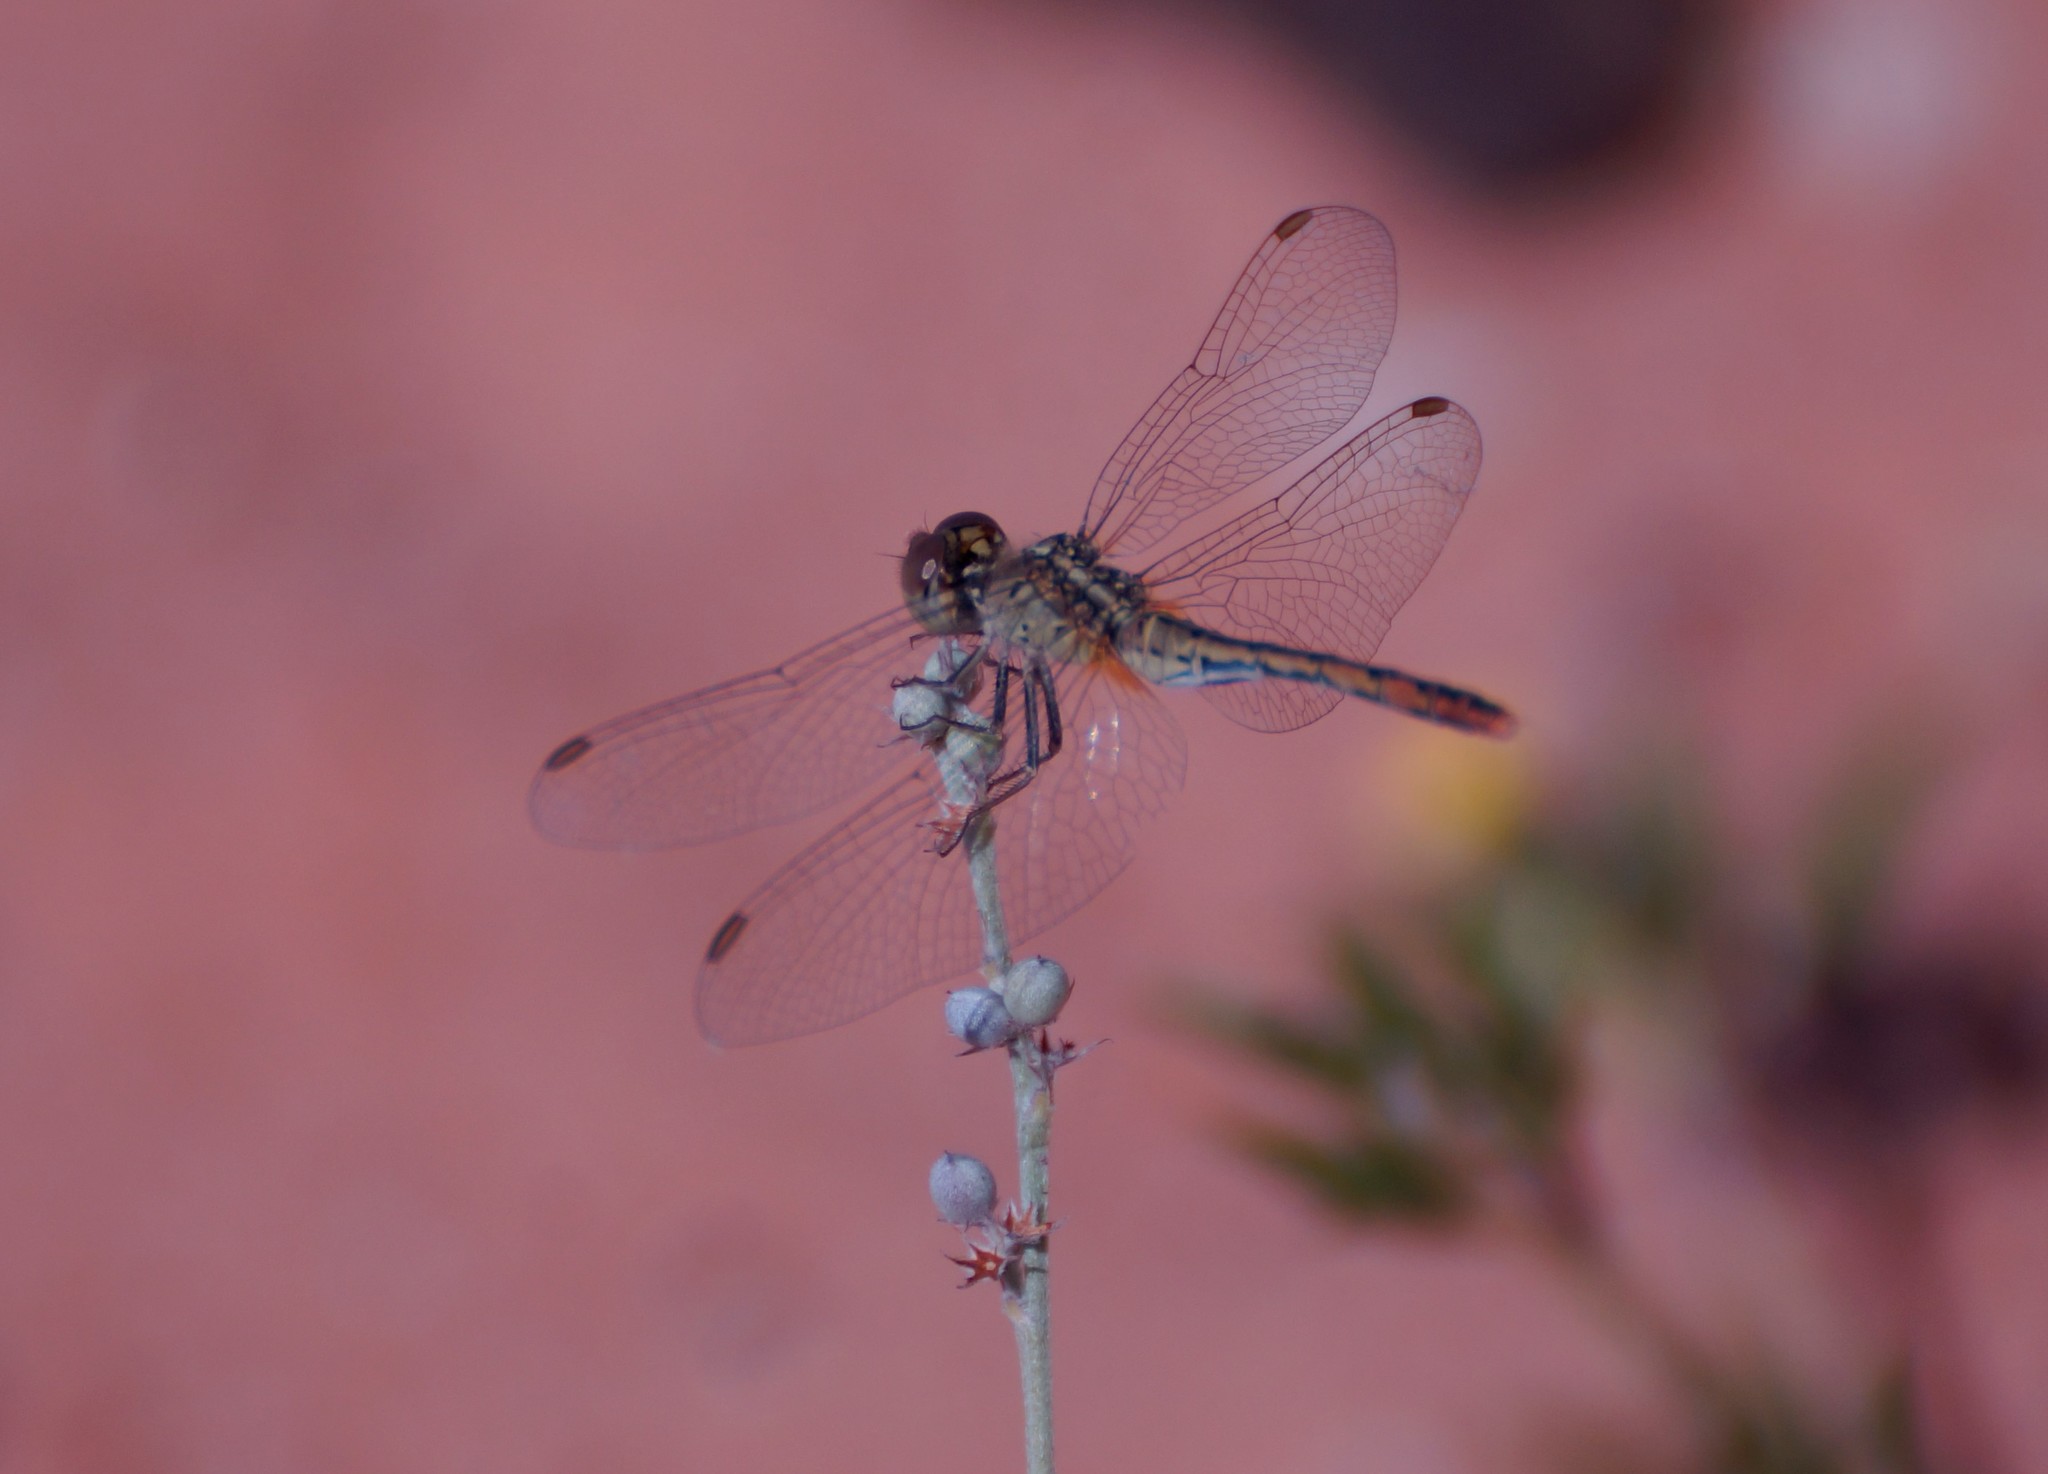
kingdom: Animalia
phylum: Arthropoda
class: Insecta
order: Odonata
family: Libellulidae
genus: Diplacodes
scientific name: Diplacodes bipunctata
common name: Red percher dragonfly
